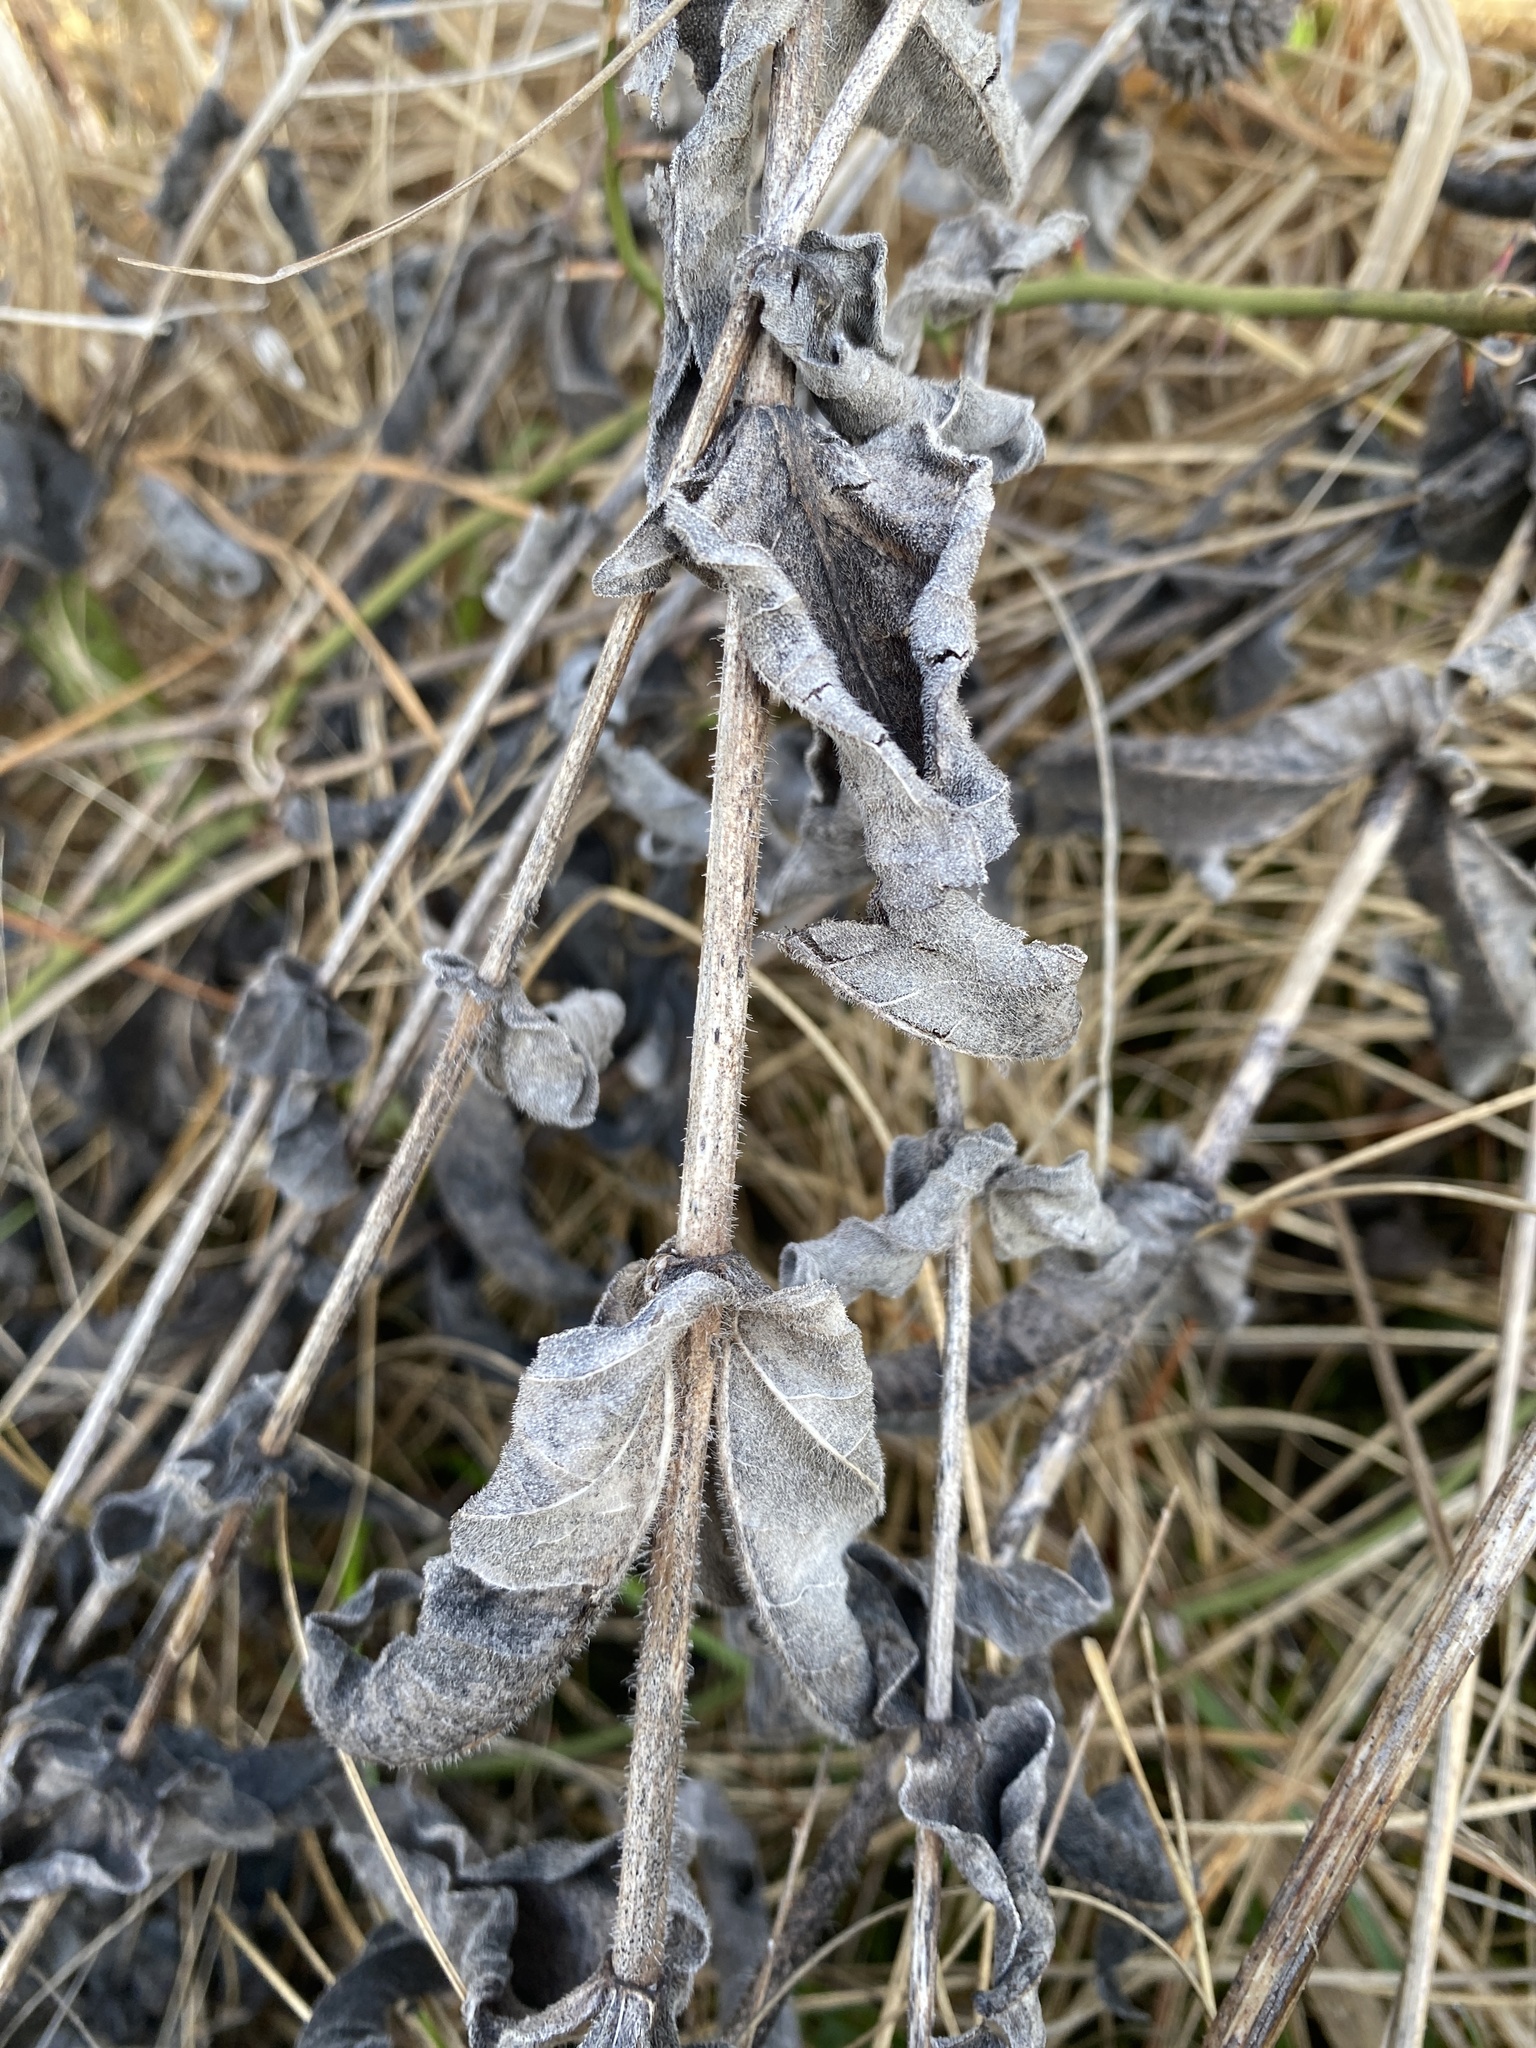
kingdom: Plantae
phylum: Tracheophyta
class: Magnoliopsida
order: Asterales
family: Asteraceae
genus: Helianthus
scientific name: Helianthus mollis
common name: Ashy sunflower
